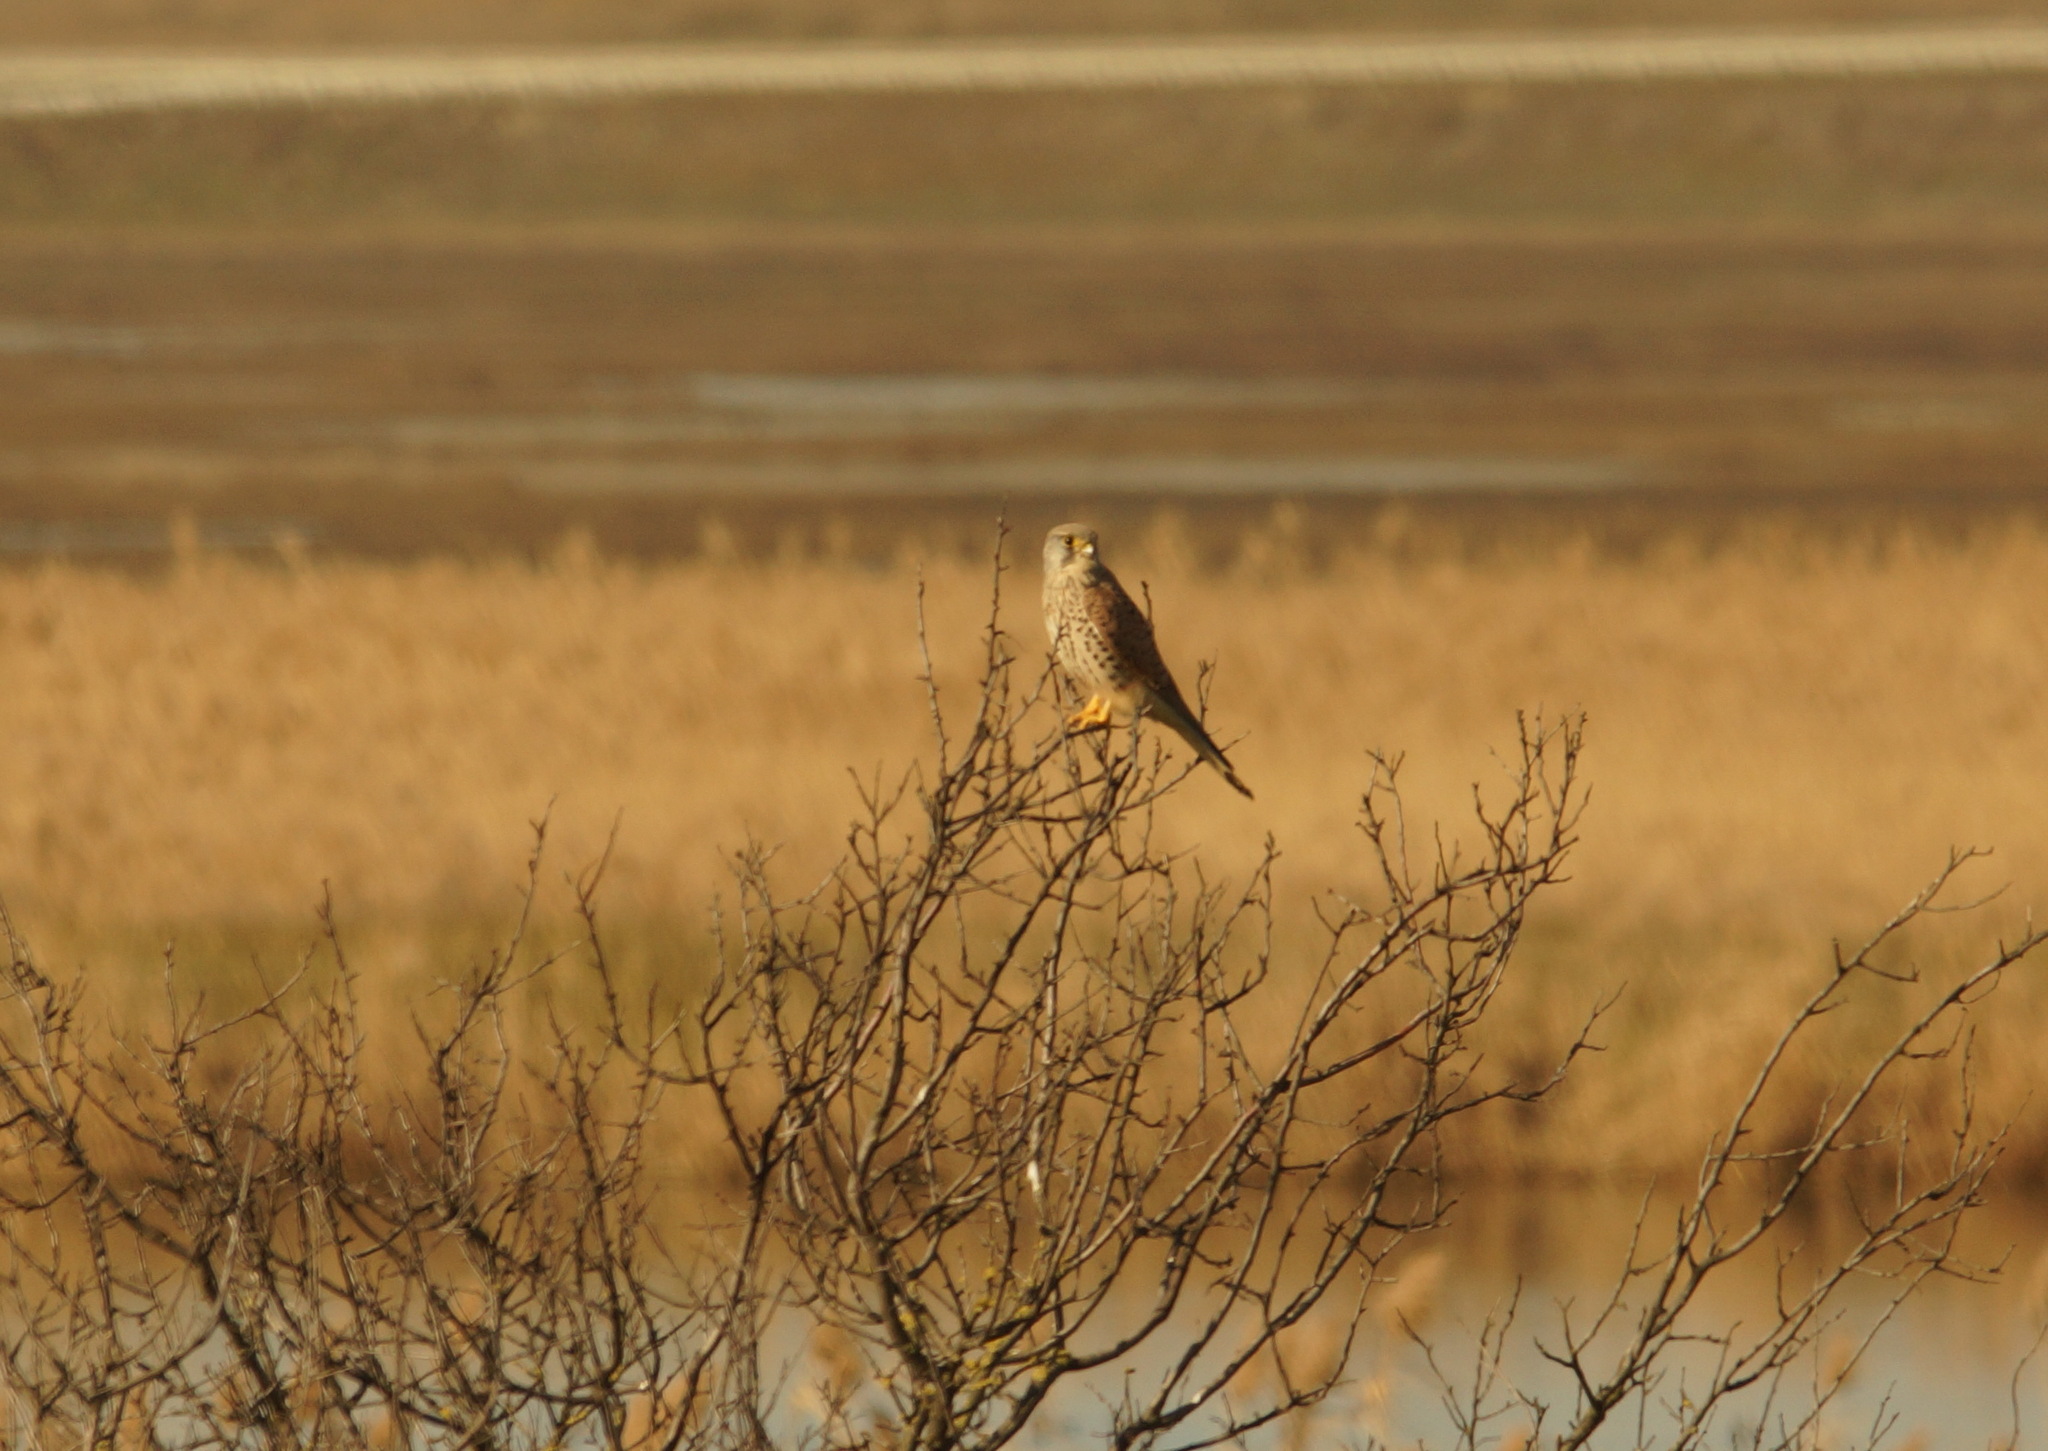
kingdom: Animalia
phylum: Chordata
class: Aves
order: Falconiformes
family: Falconidae
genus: Falco
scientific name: Falco tinnunculus
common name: Common kestrel
